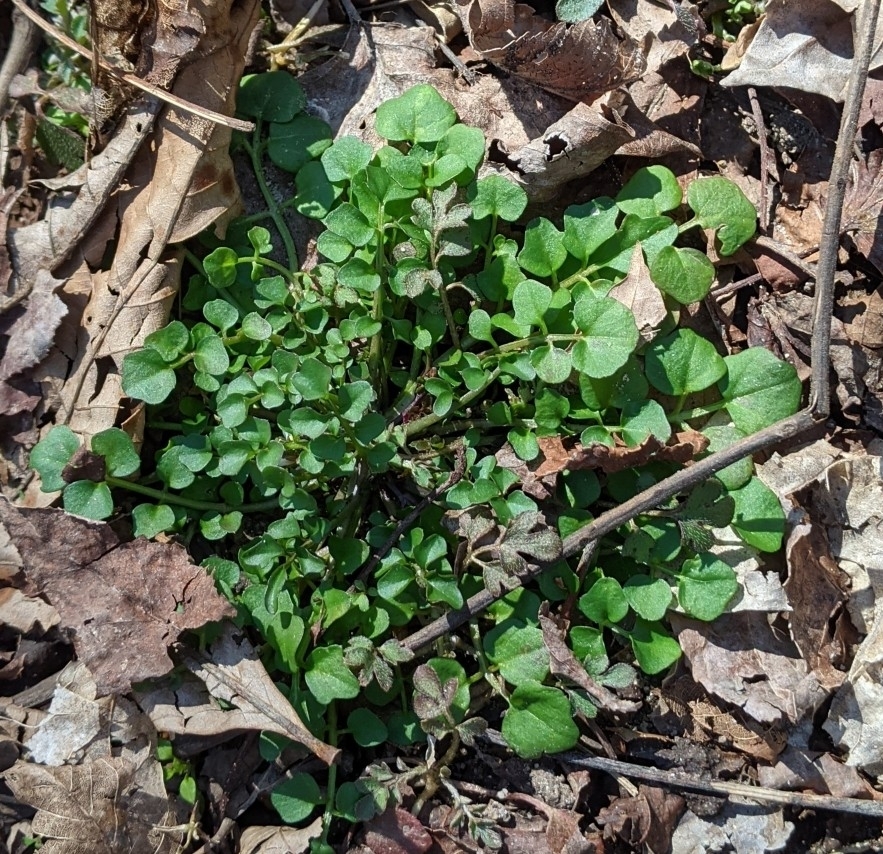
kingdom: Plantae
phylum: Tracheophyta
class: Magnoliopsida
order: Brassicales
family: Brassicaceae
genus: Cardamine
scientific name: Cardamine hirsuta
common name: Hairy bittercress
